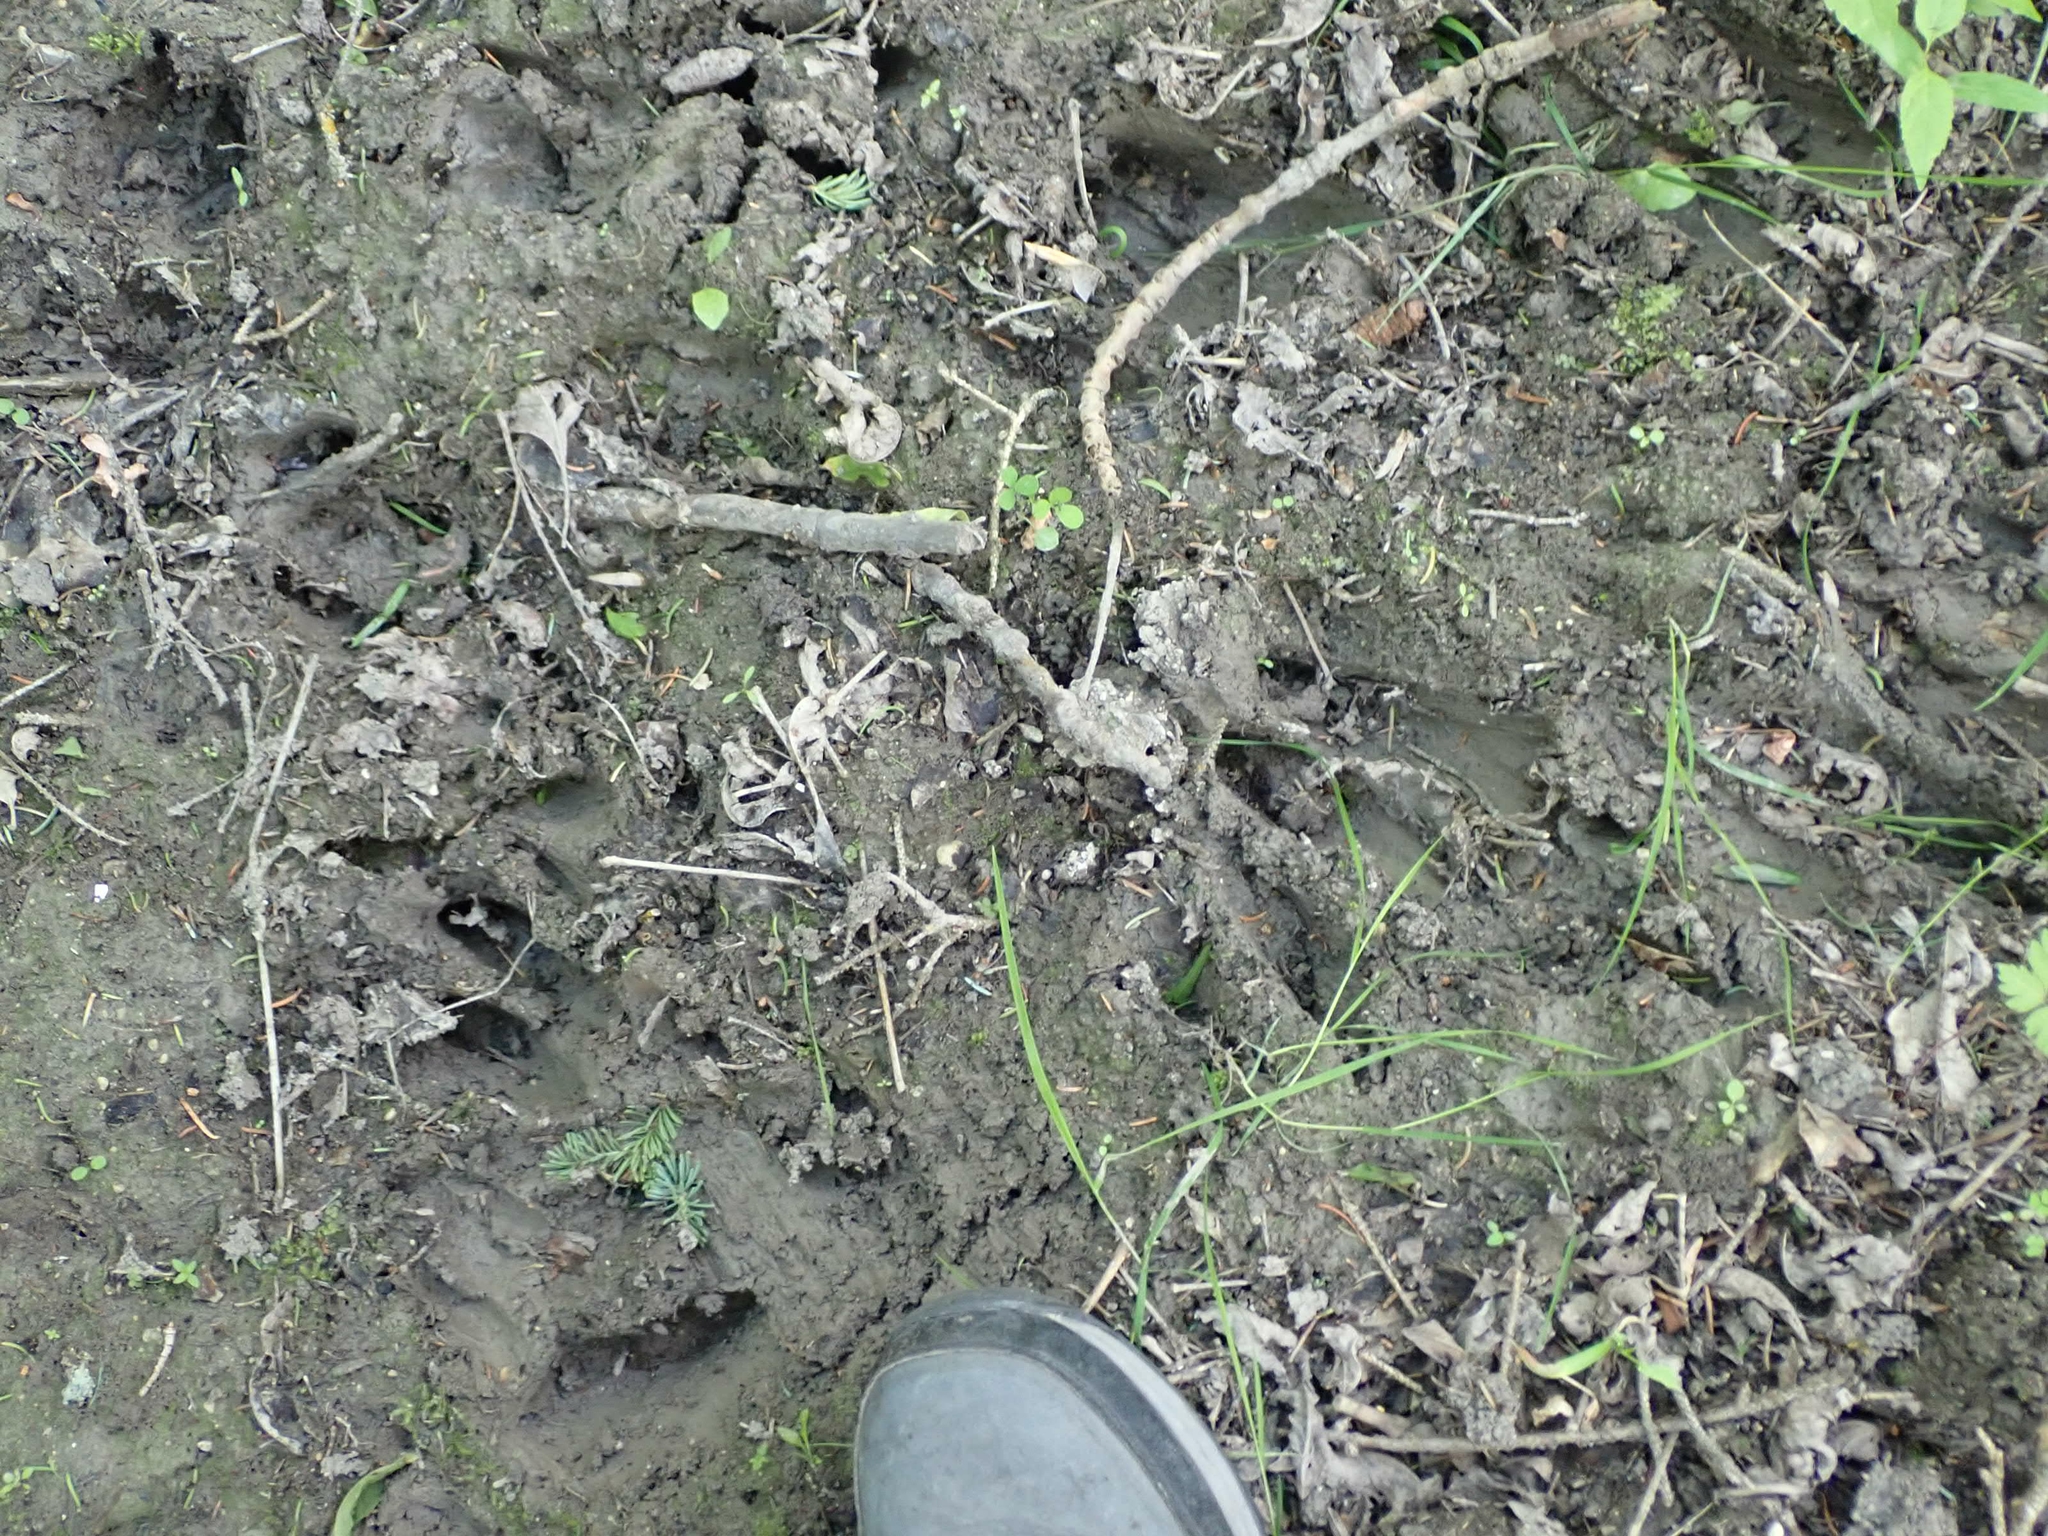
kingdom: Animalia
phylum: Chordata
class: Mammalia
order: Artiodactyla
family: Cervidae
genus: Odocoileus
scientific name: Odocoileus virginianus
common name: White-tailed deer
